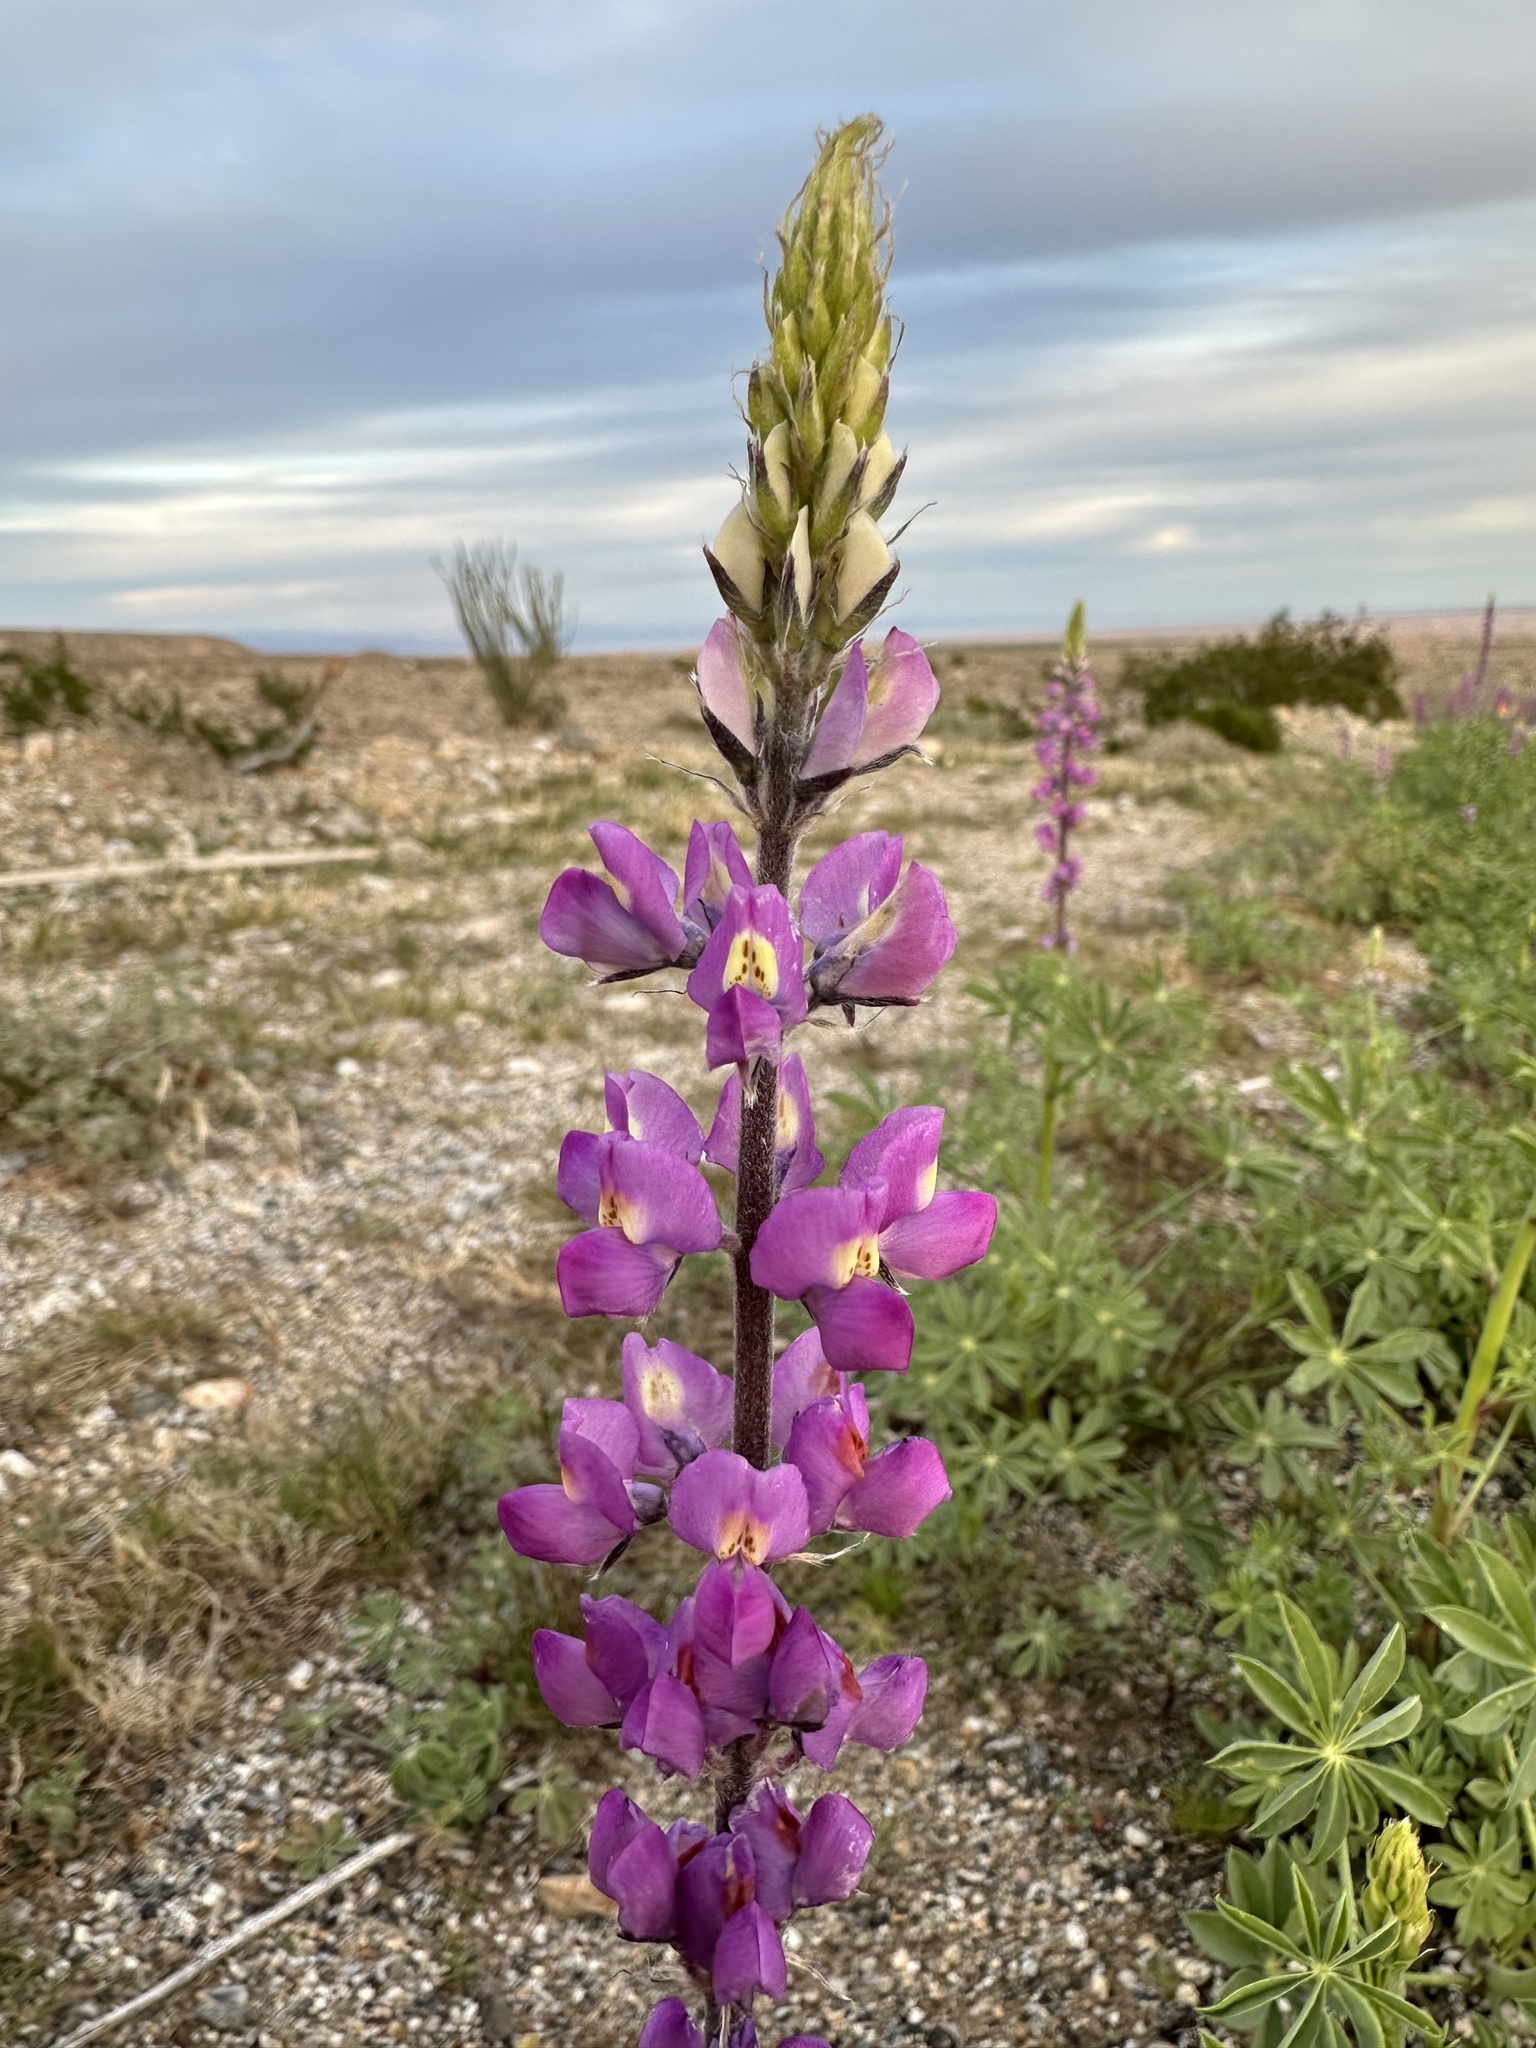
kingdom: Plantae
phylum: Tracheophyta
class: Magnoliopsida
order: Fabales
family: Fabaceae
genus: Lupinus
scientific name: Lupinus arizonicus
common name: Arizona lupine
